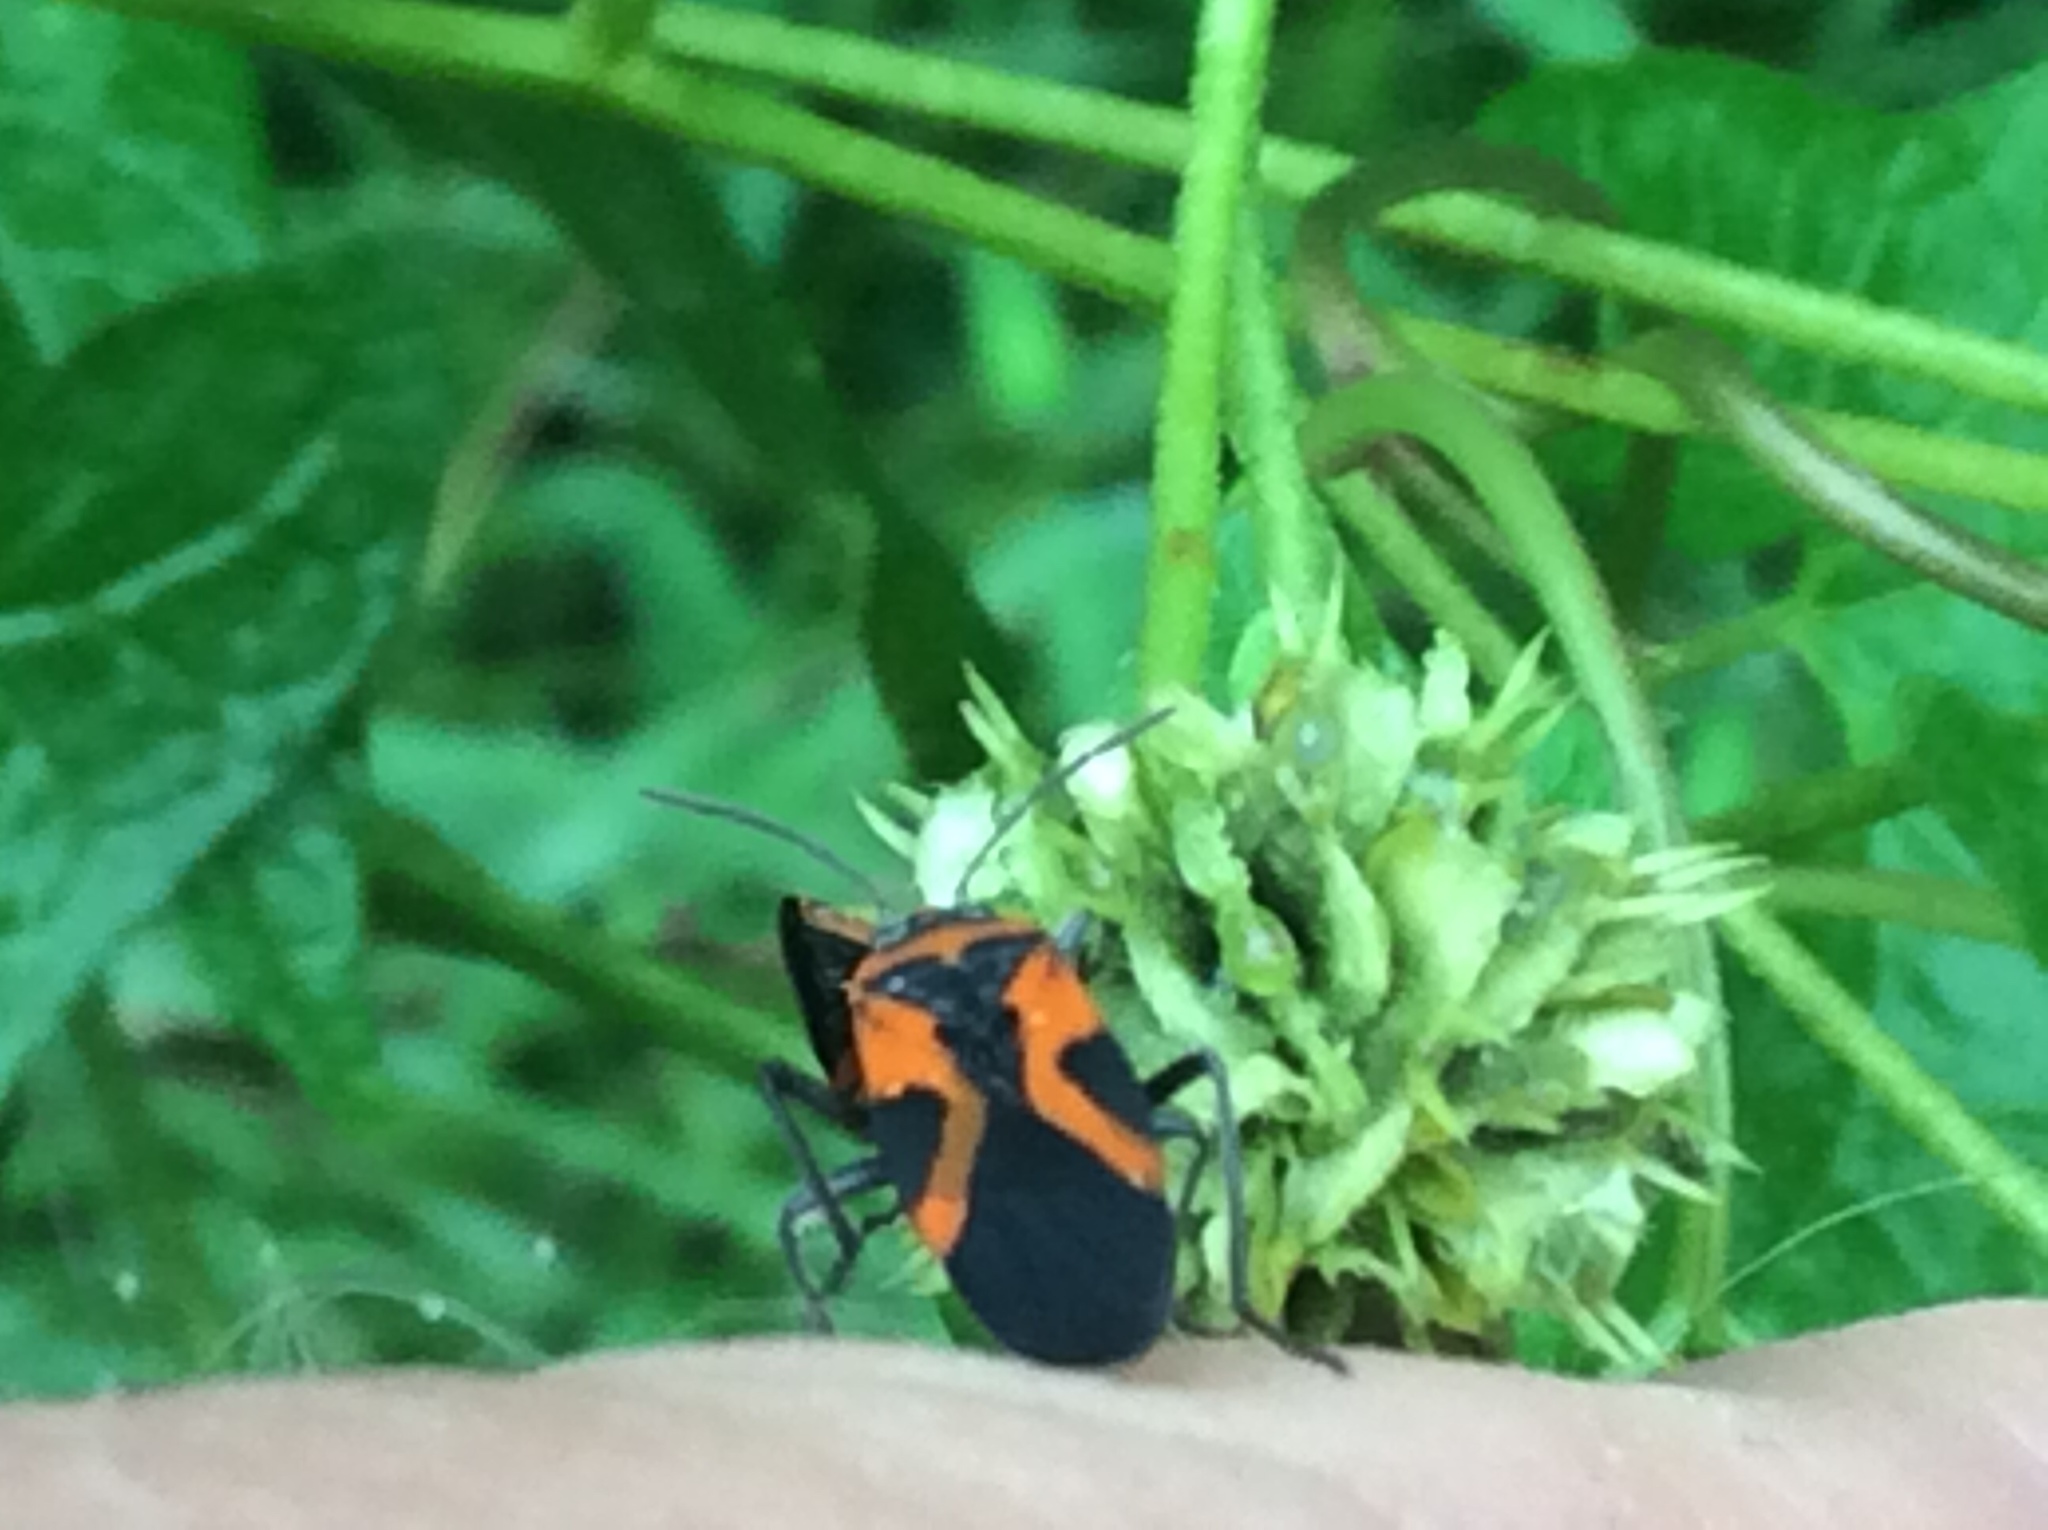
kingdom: Animalia
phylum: Arthropoda
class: Insecta
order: Hemiptera
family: Lygaeidae
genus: Lygaeus
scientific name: Lygaeus turcicus
